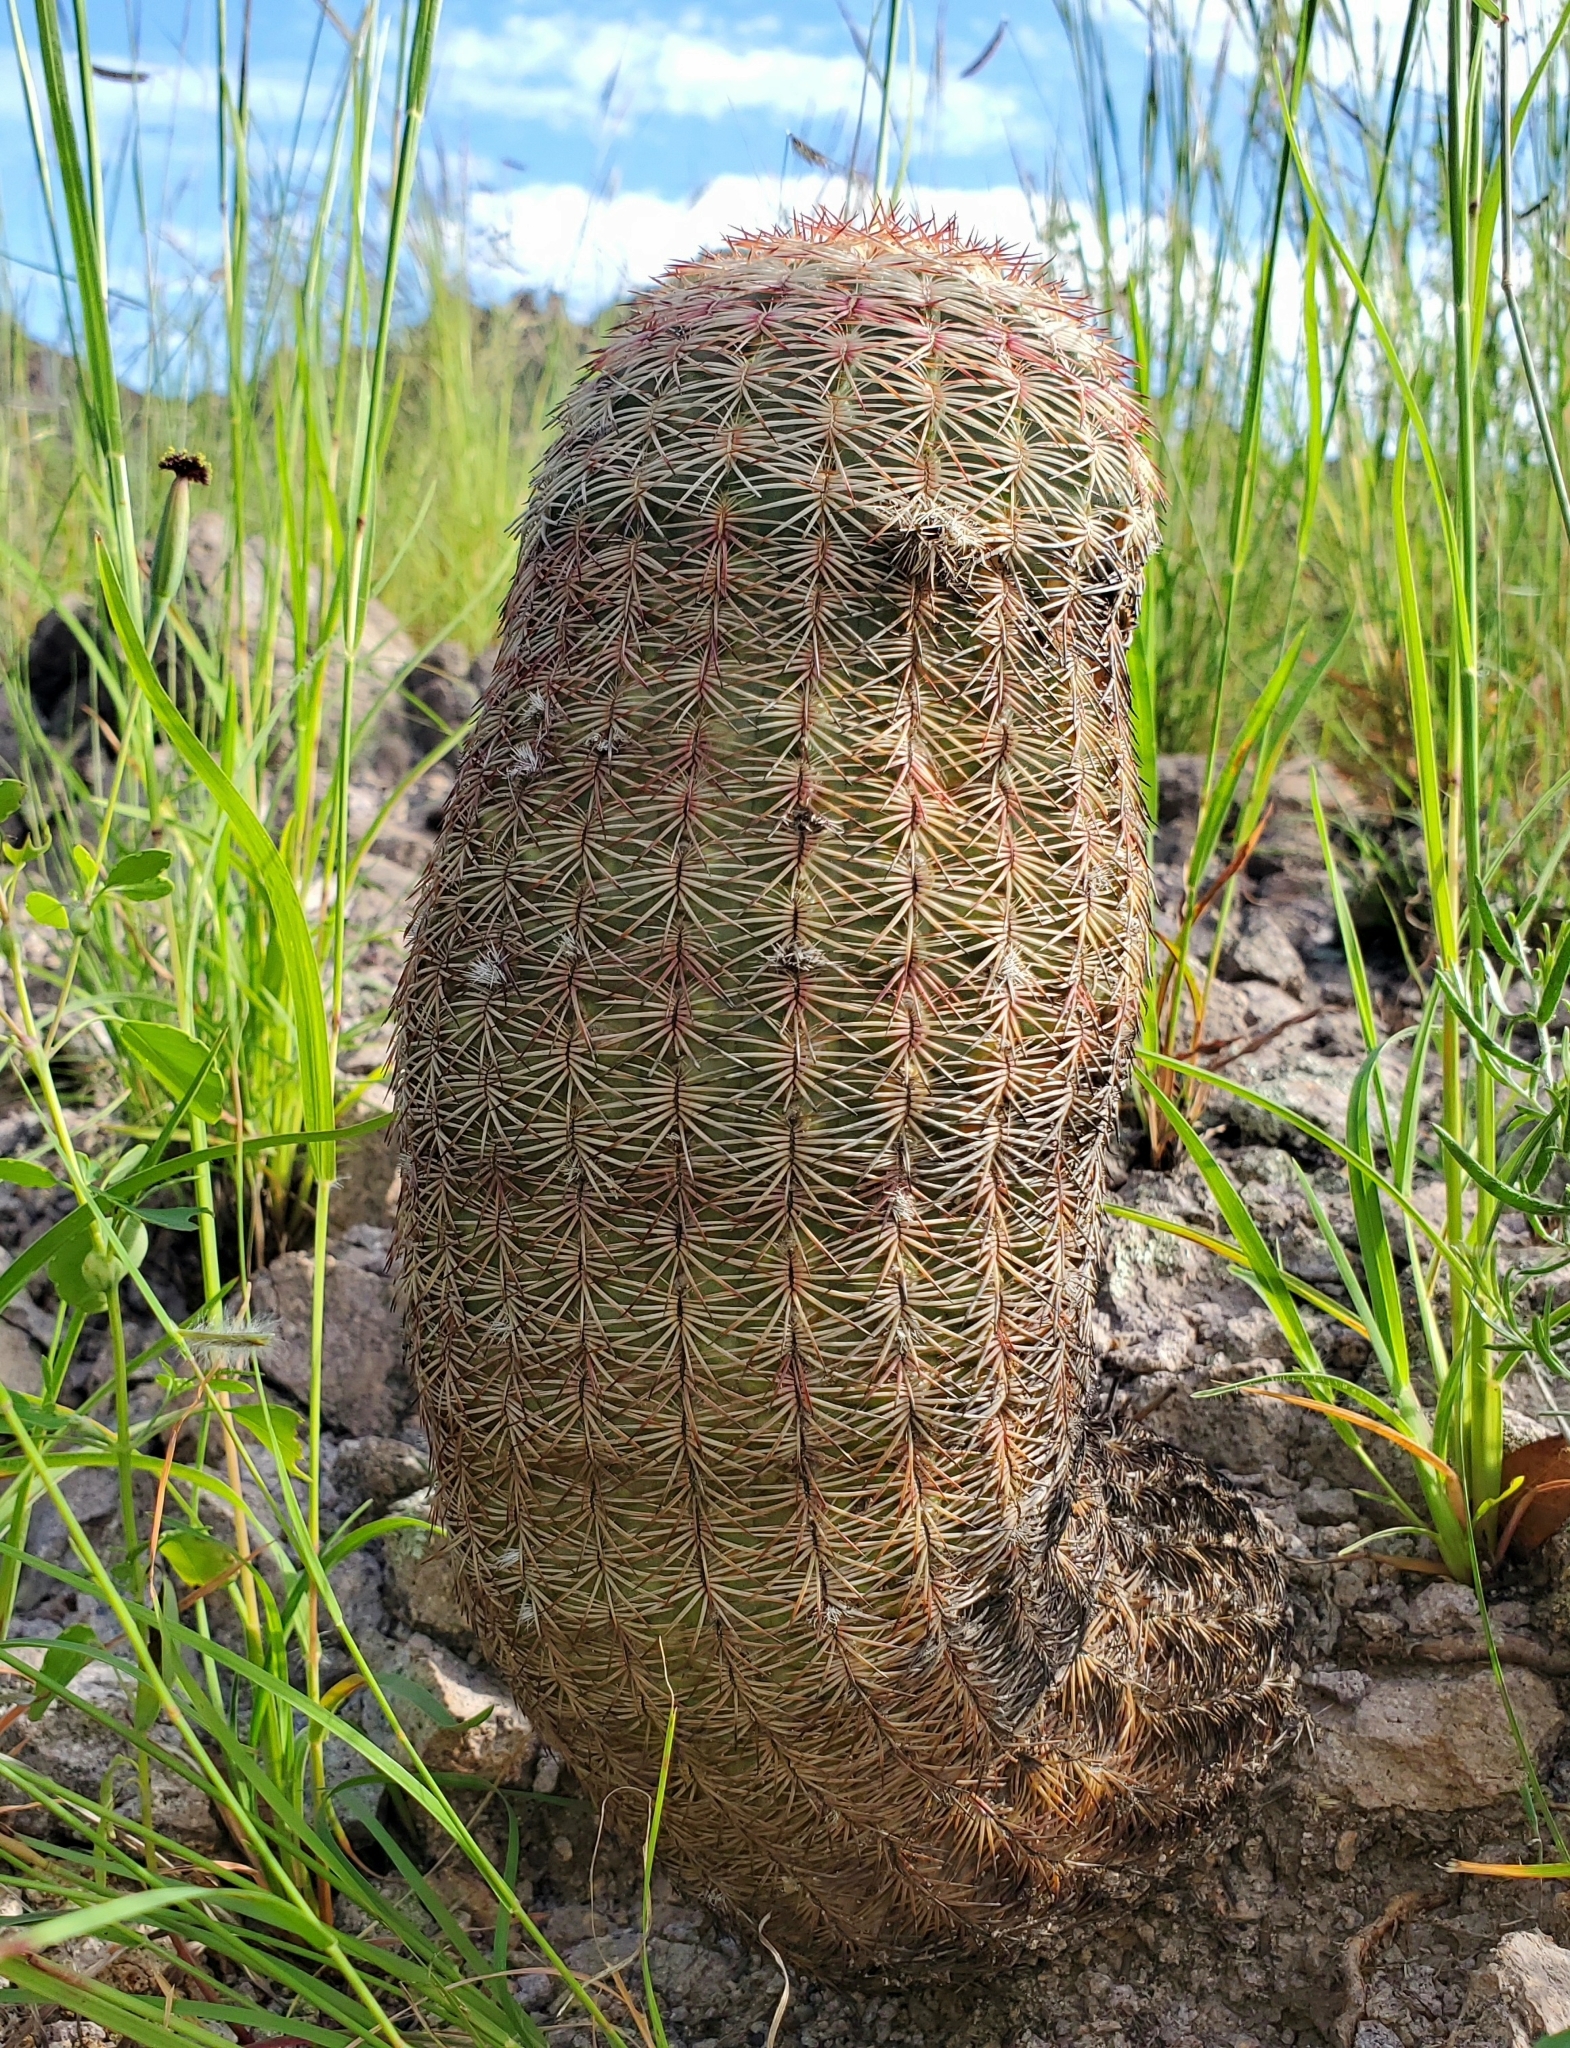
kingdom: Plantae
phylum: Tracheophyta
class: Magnoliopsida
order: Caryophyllales
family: Cactaceae
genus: Echinocereus
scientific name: Echinocereus rigidissimus
